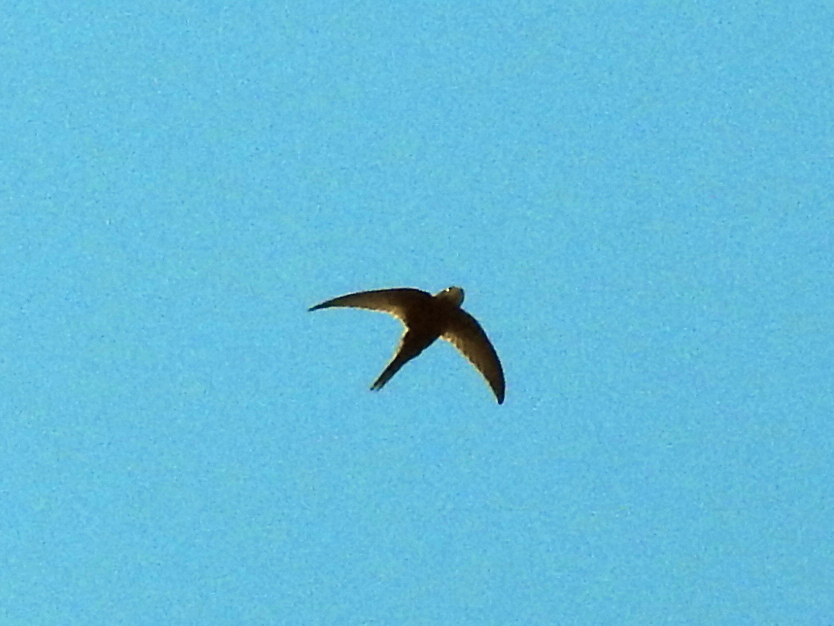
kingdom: Animalia
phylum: Chordata
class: Aves
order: Apodiformes
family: Apodidae
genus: Apus
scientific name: Apus apus
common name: Common swift
